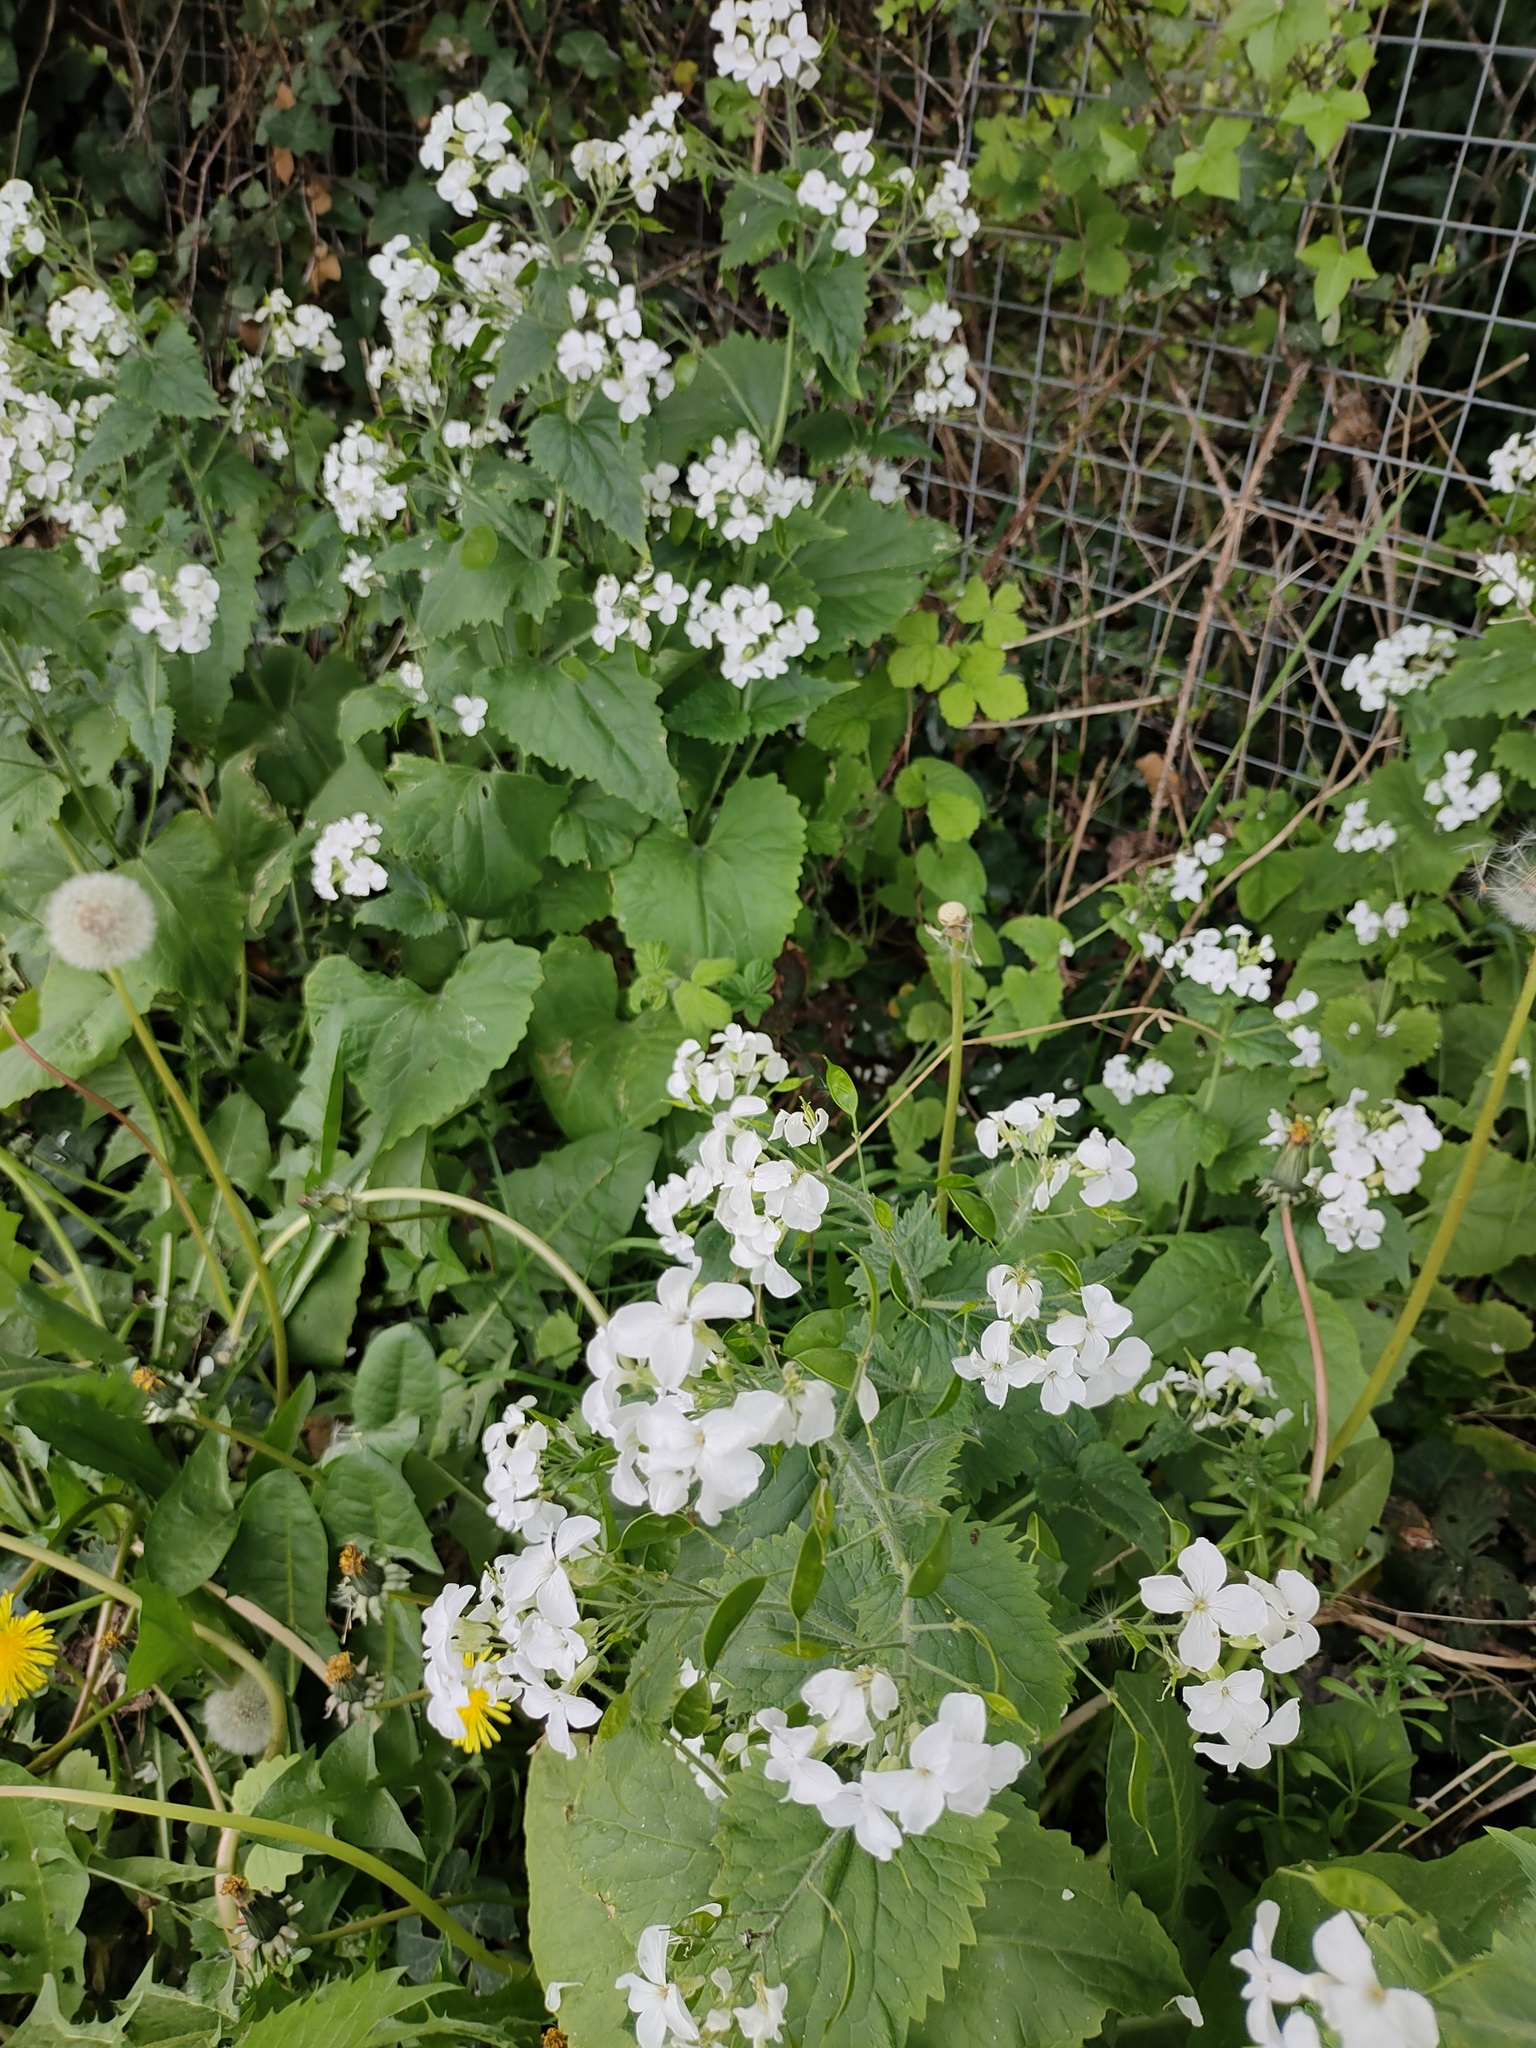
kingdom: Plantae
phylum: Tracheophyta
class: Magnoliopsida
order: Brassicales
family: Brassicaceae
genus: Lunaria
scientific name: Lunaria annua
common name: Honesty
